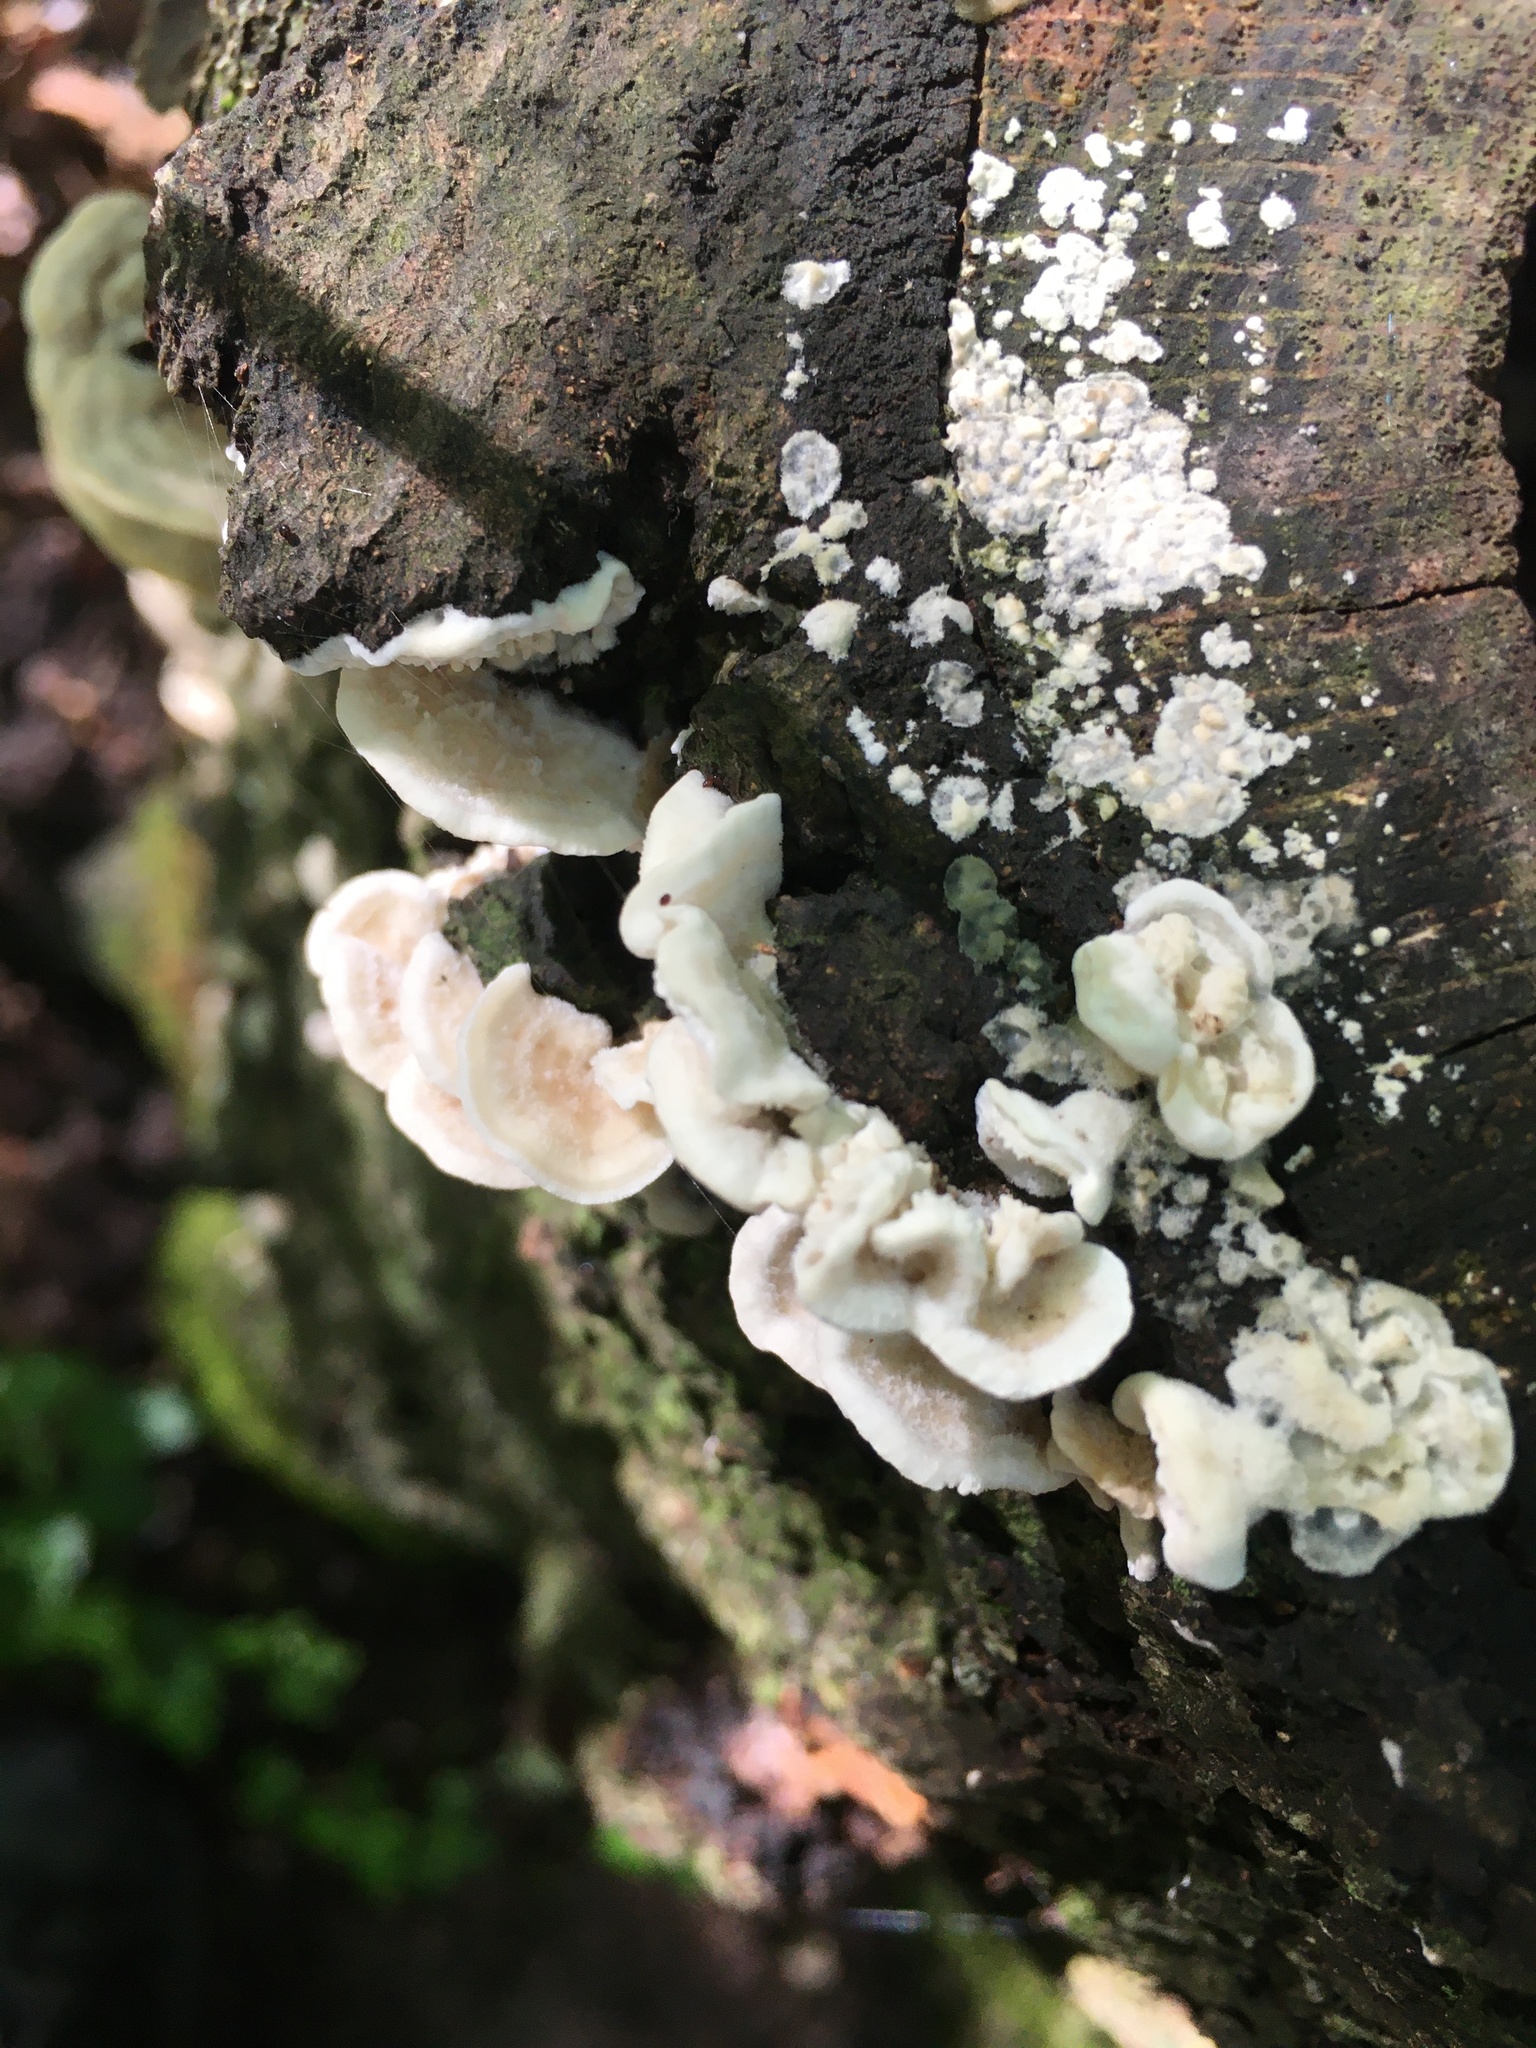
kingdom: Fungi
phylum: Basidiomycota
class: Agaricomycetes
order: Polyporales
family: Meruliaceae
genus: Irpiciporus
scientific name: Irpiciporus pachyodon
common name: Marshmallow polypore
